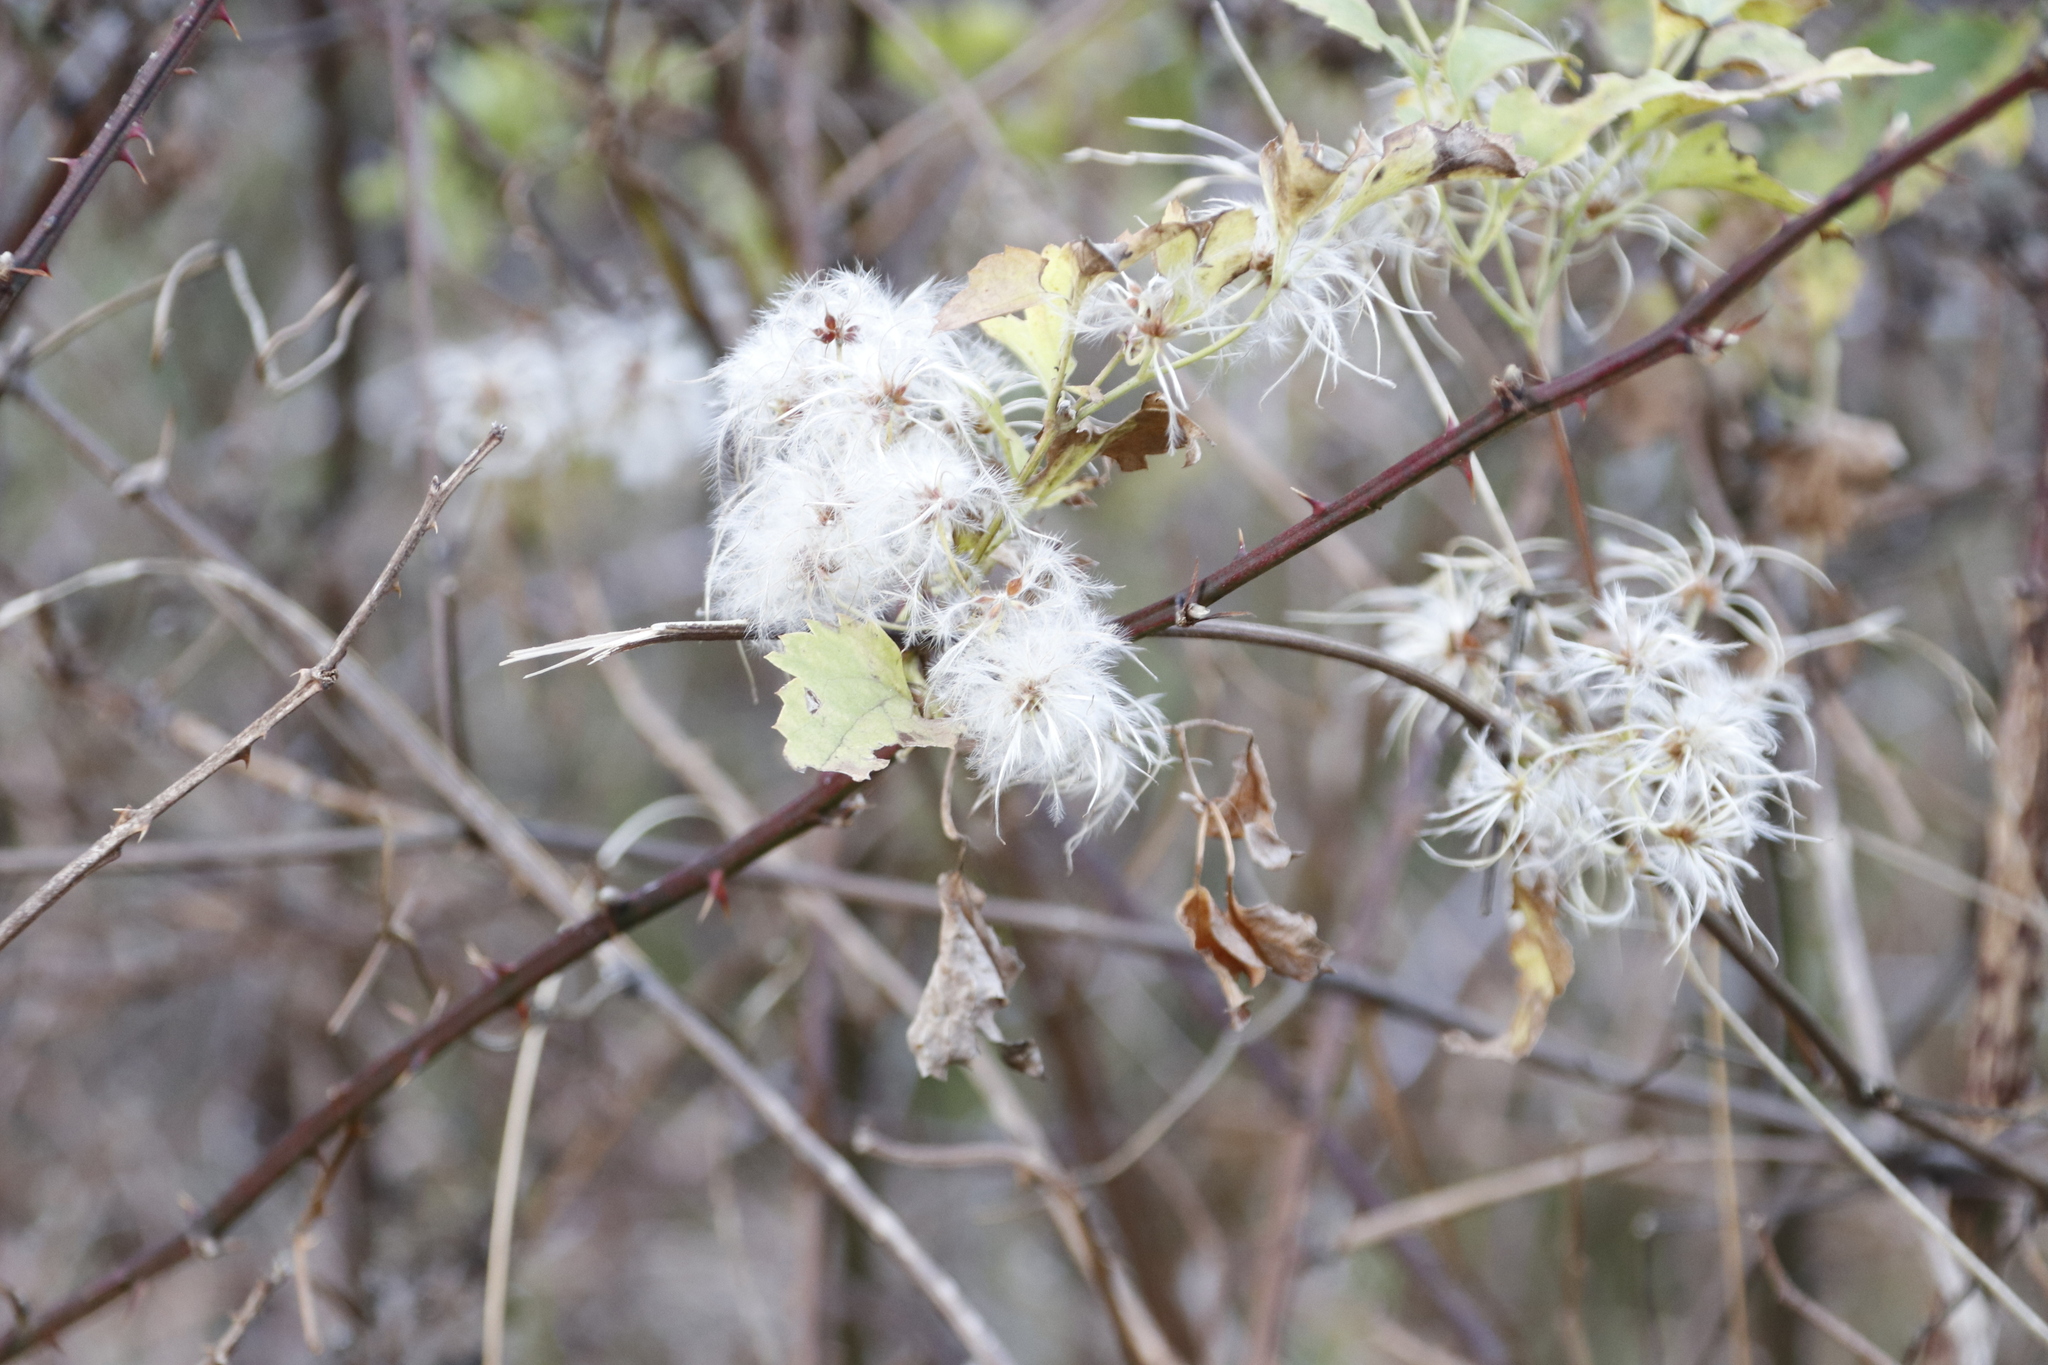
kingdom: Plantae
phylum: Tracheophyta
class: Magnoliopsida
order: Ranunculales
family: Ranunculaceae
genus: Clematis
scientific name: Clematis brachiata
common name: Traveler's-joy
